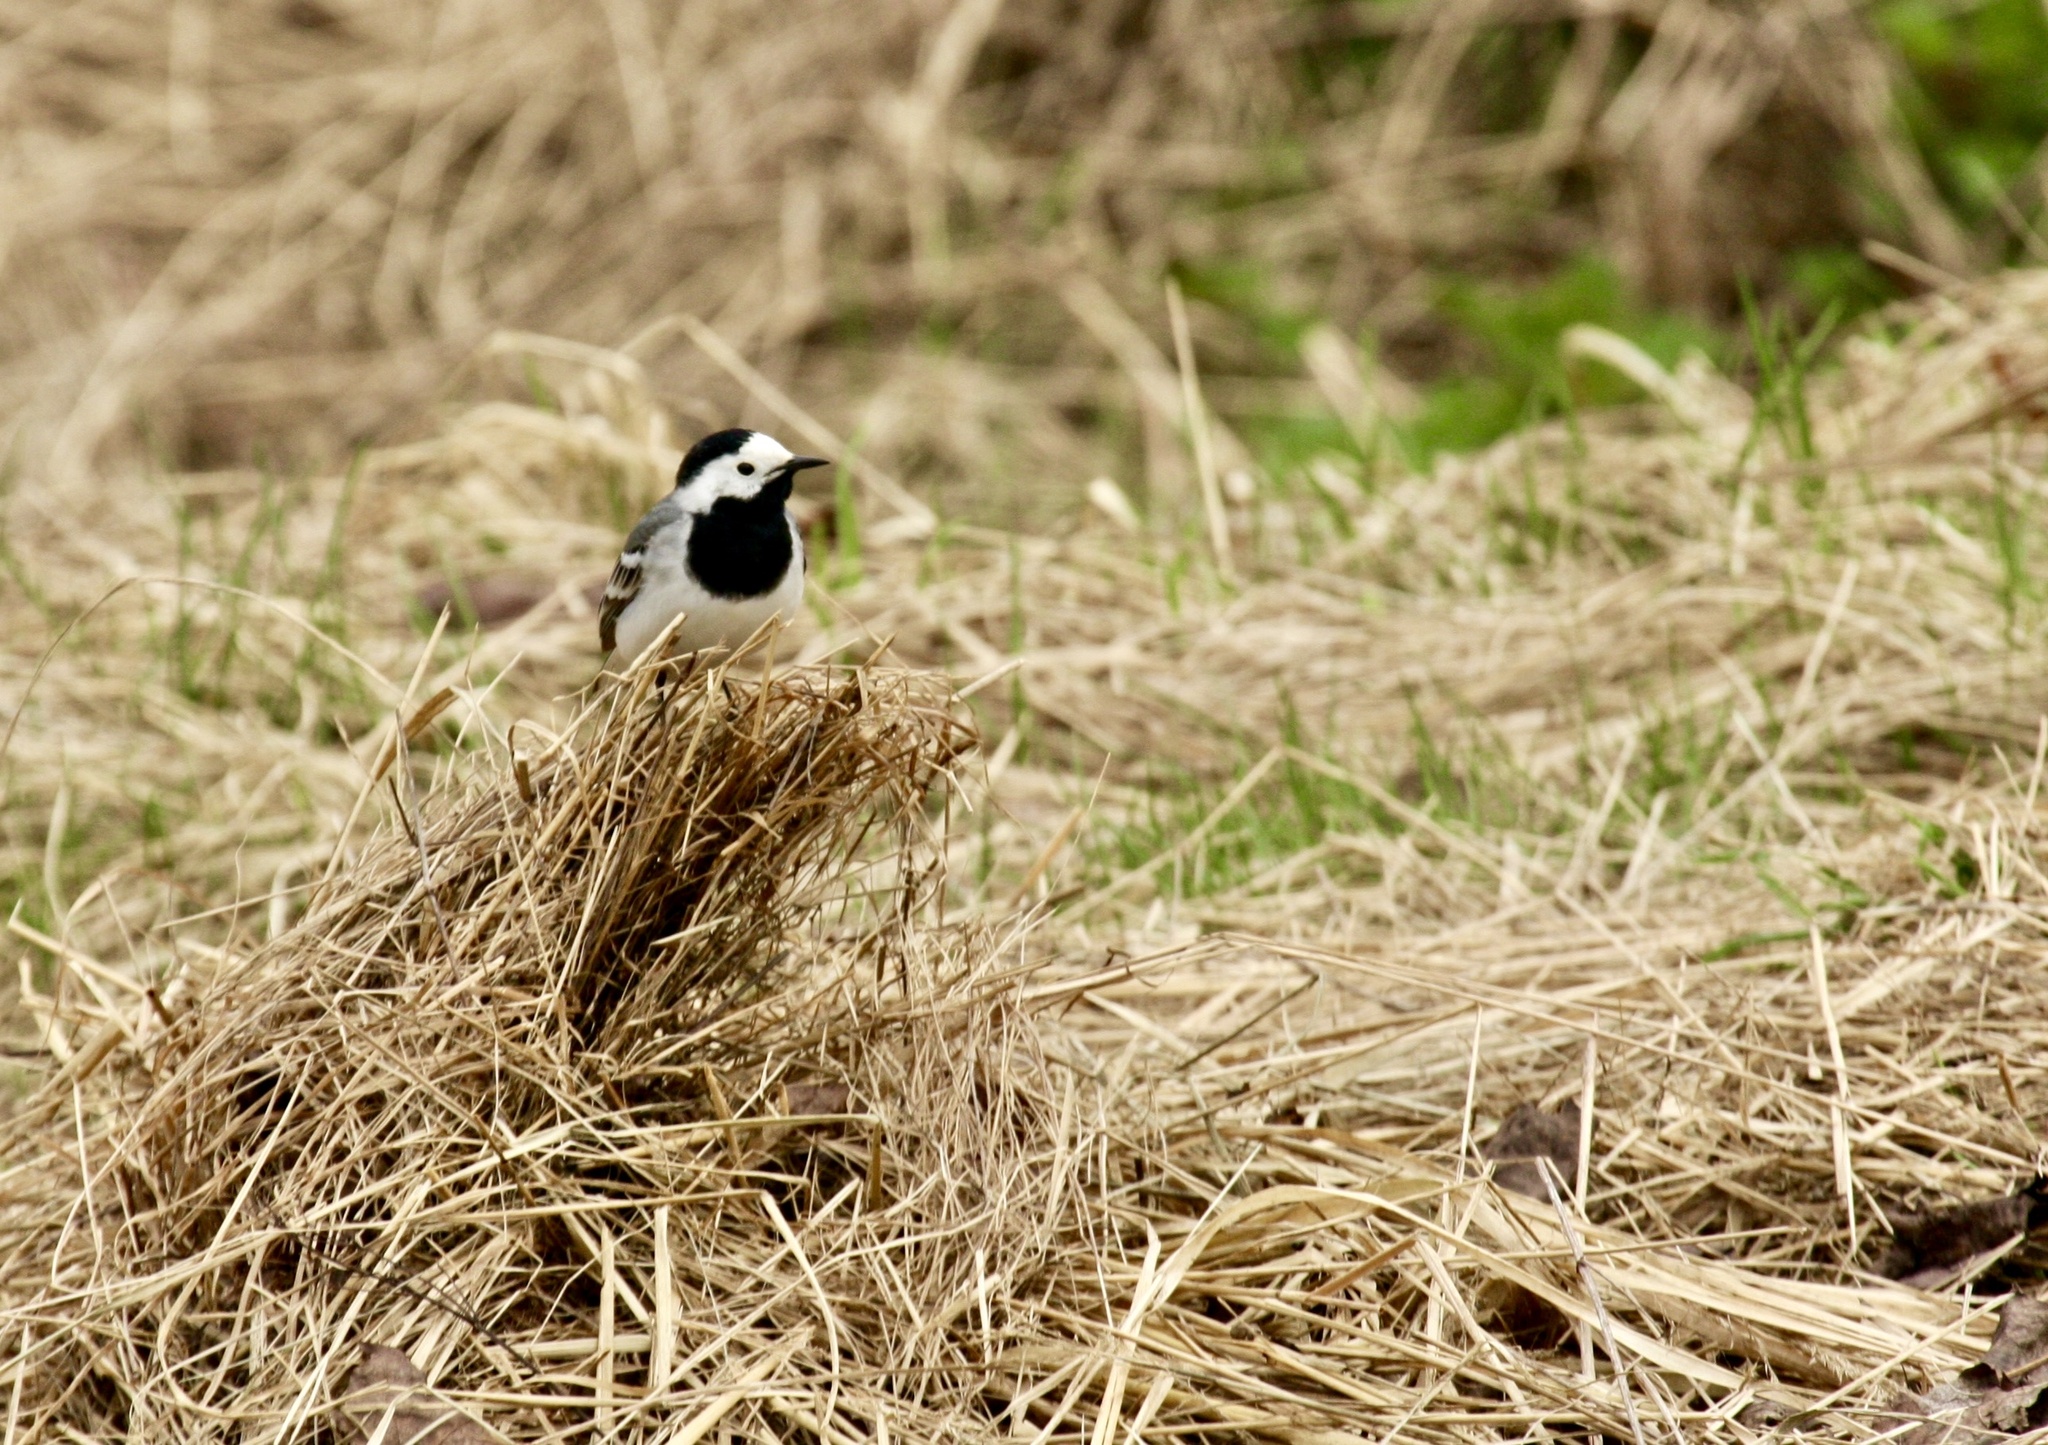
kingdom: Animalia
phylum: Chordata
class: Aves
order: Passeriformes
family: Motacillidae
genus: Motacilla
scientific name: Motacilla alba
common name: White wagtail
